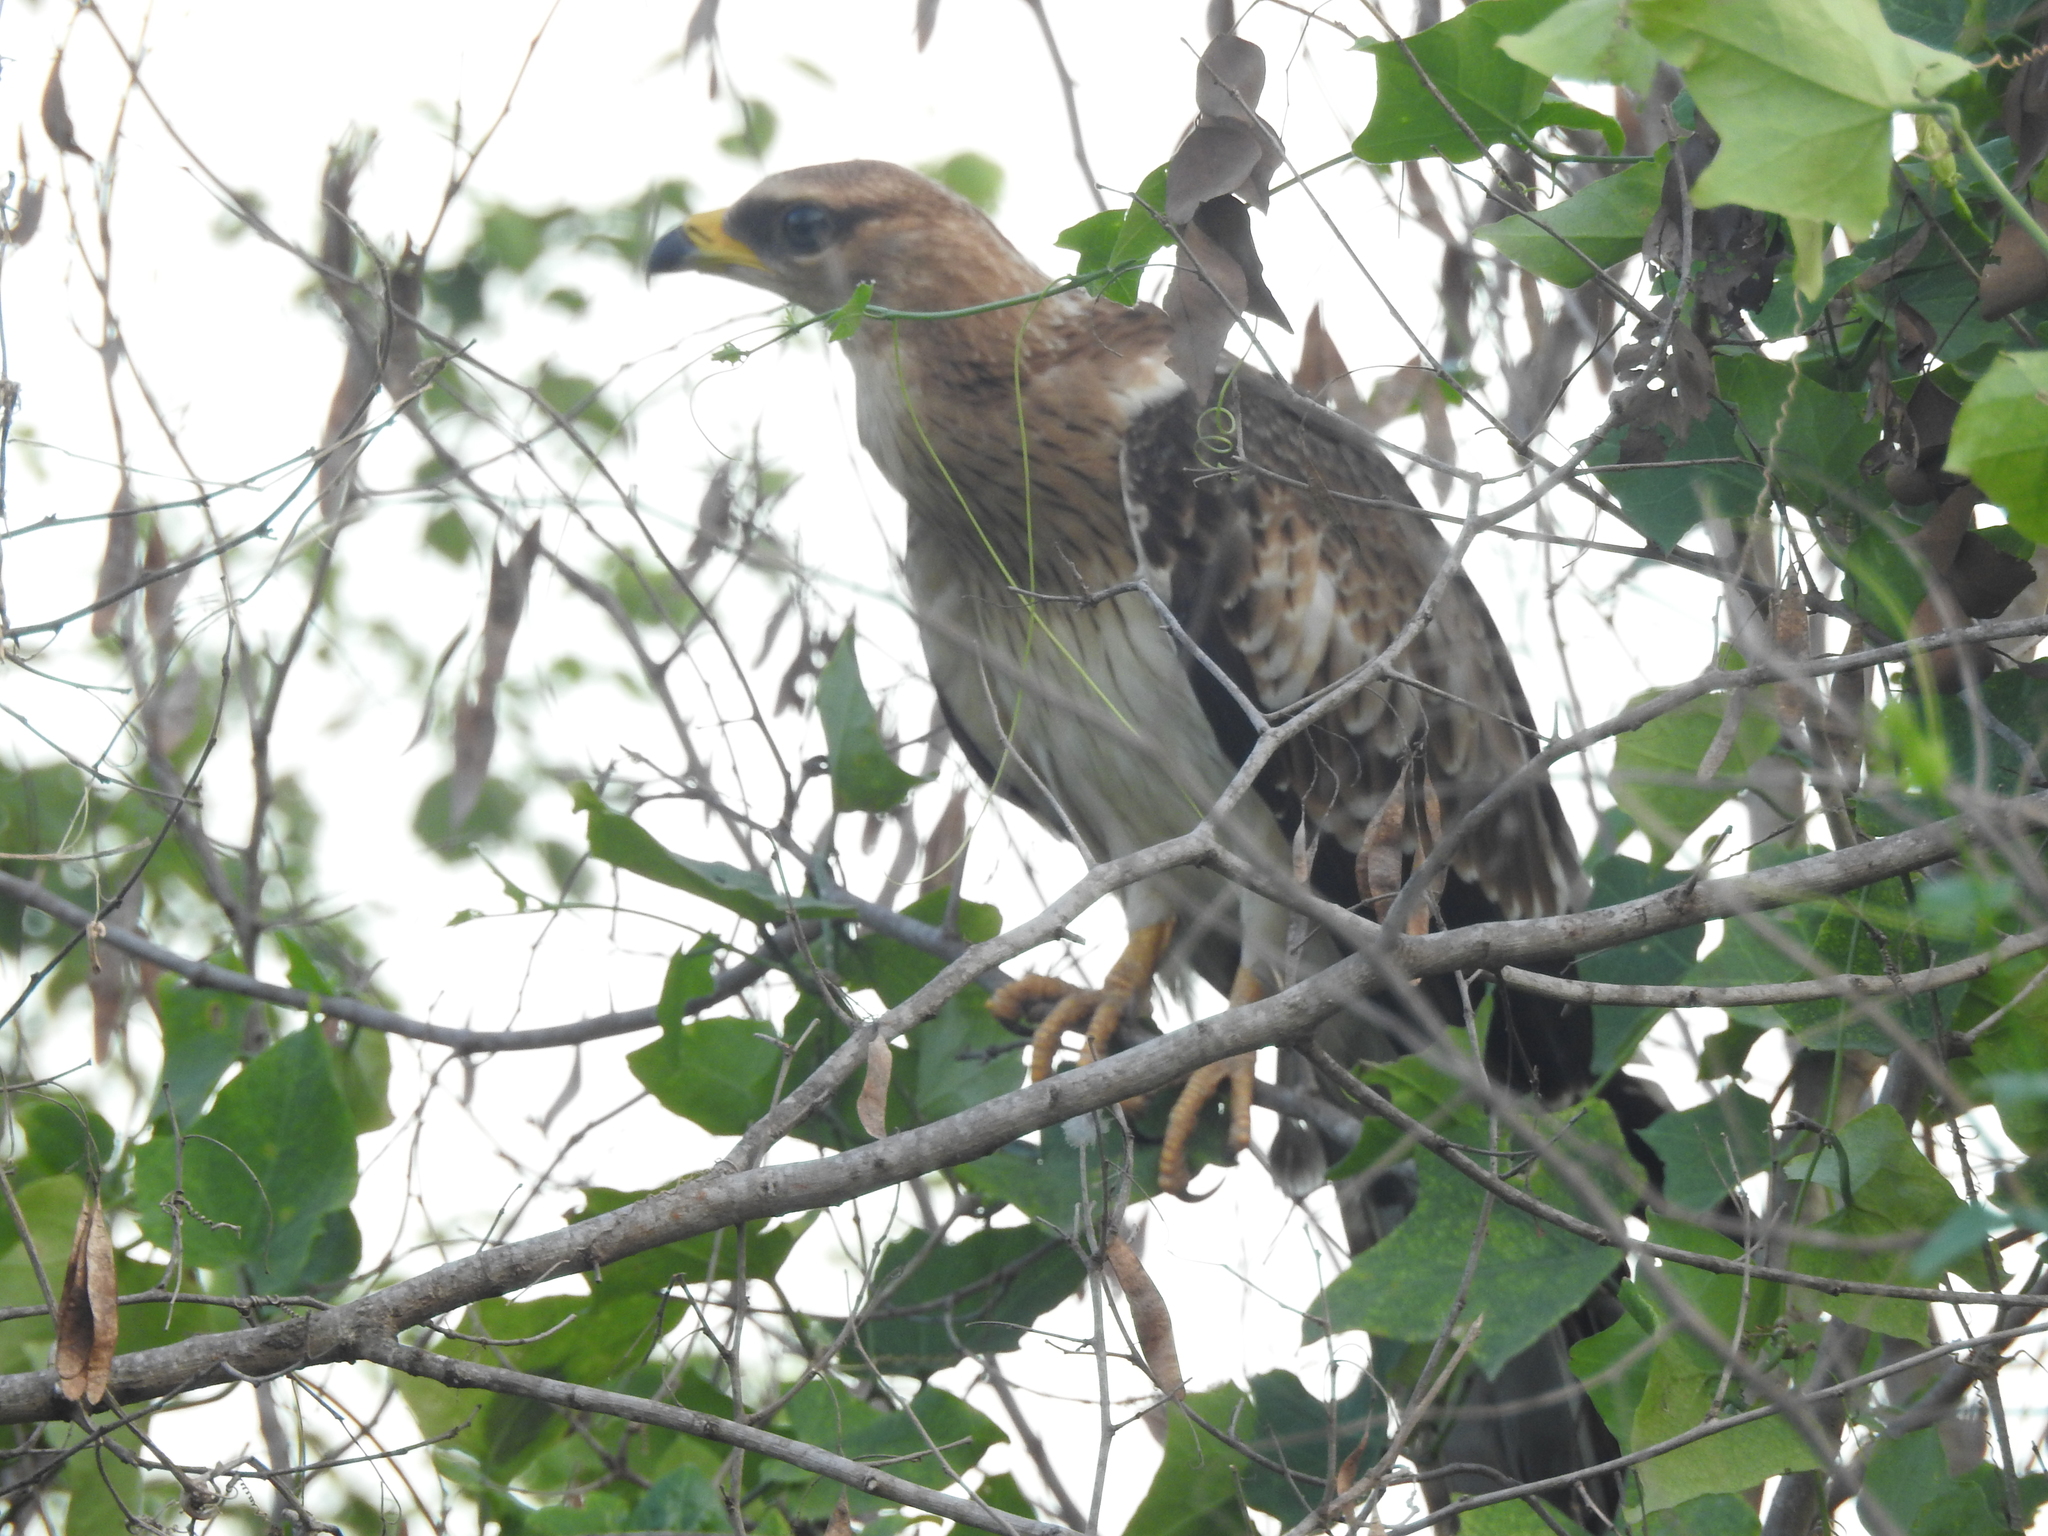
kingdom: Animalia
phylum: Chordata
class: Aves
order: Accipitriformes
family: Accipitridae
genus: Pernis
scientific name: Pernis ptilorhynchus
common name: Crested honey buzzard
